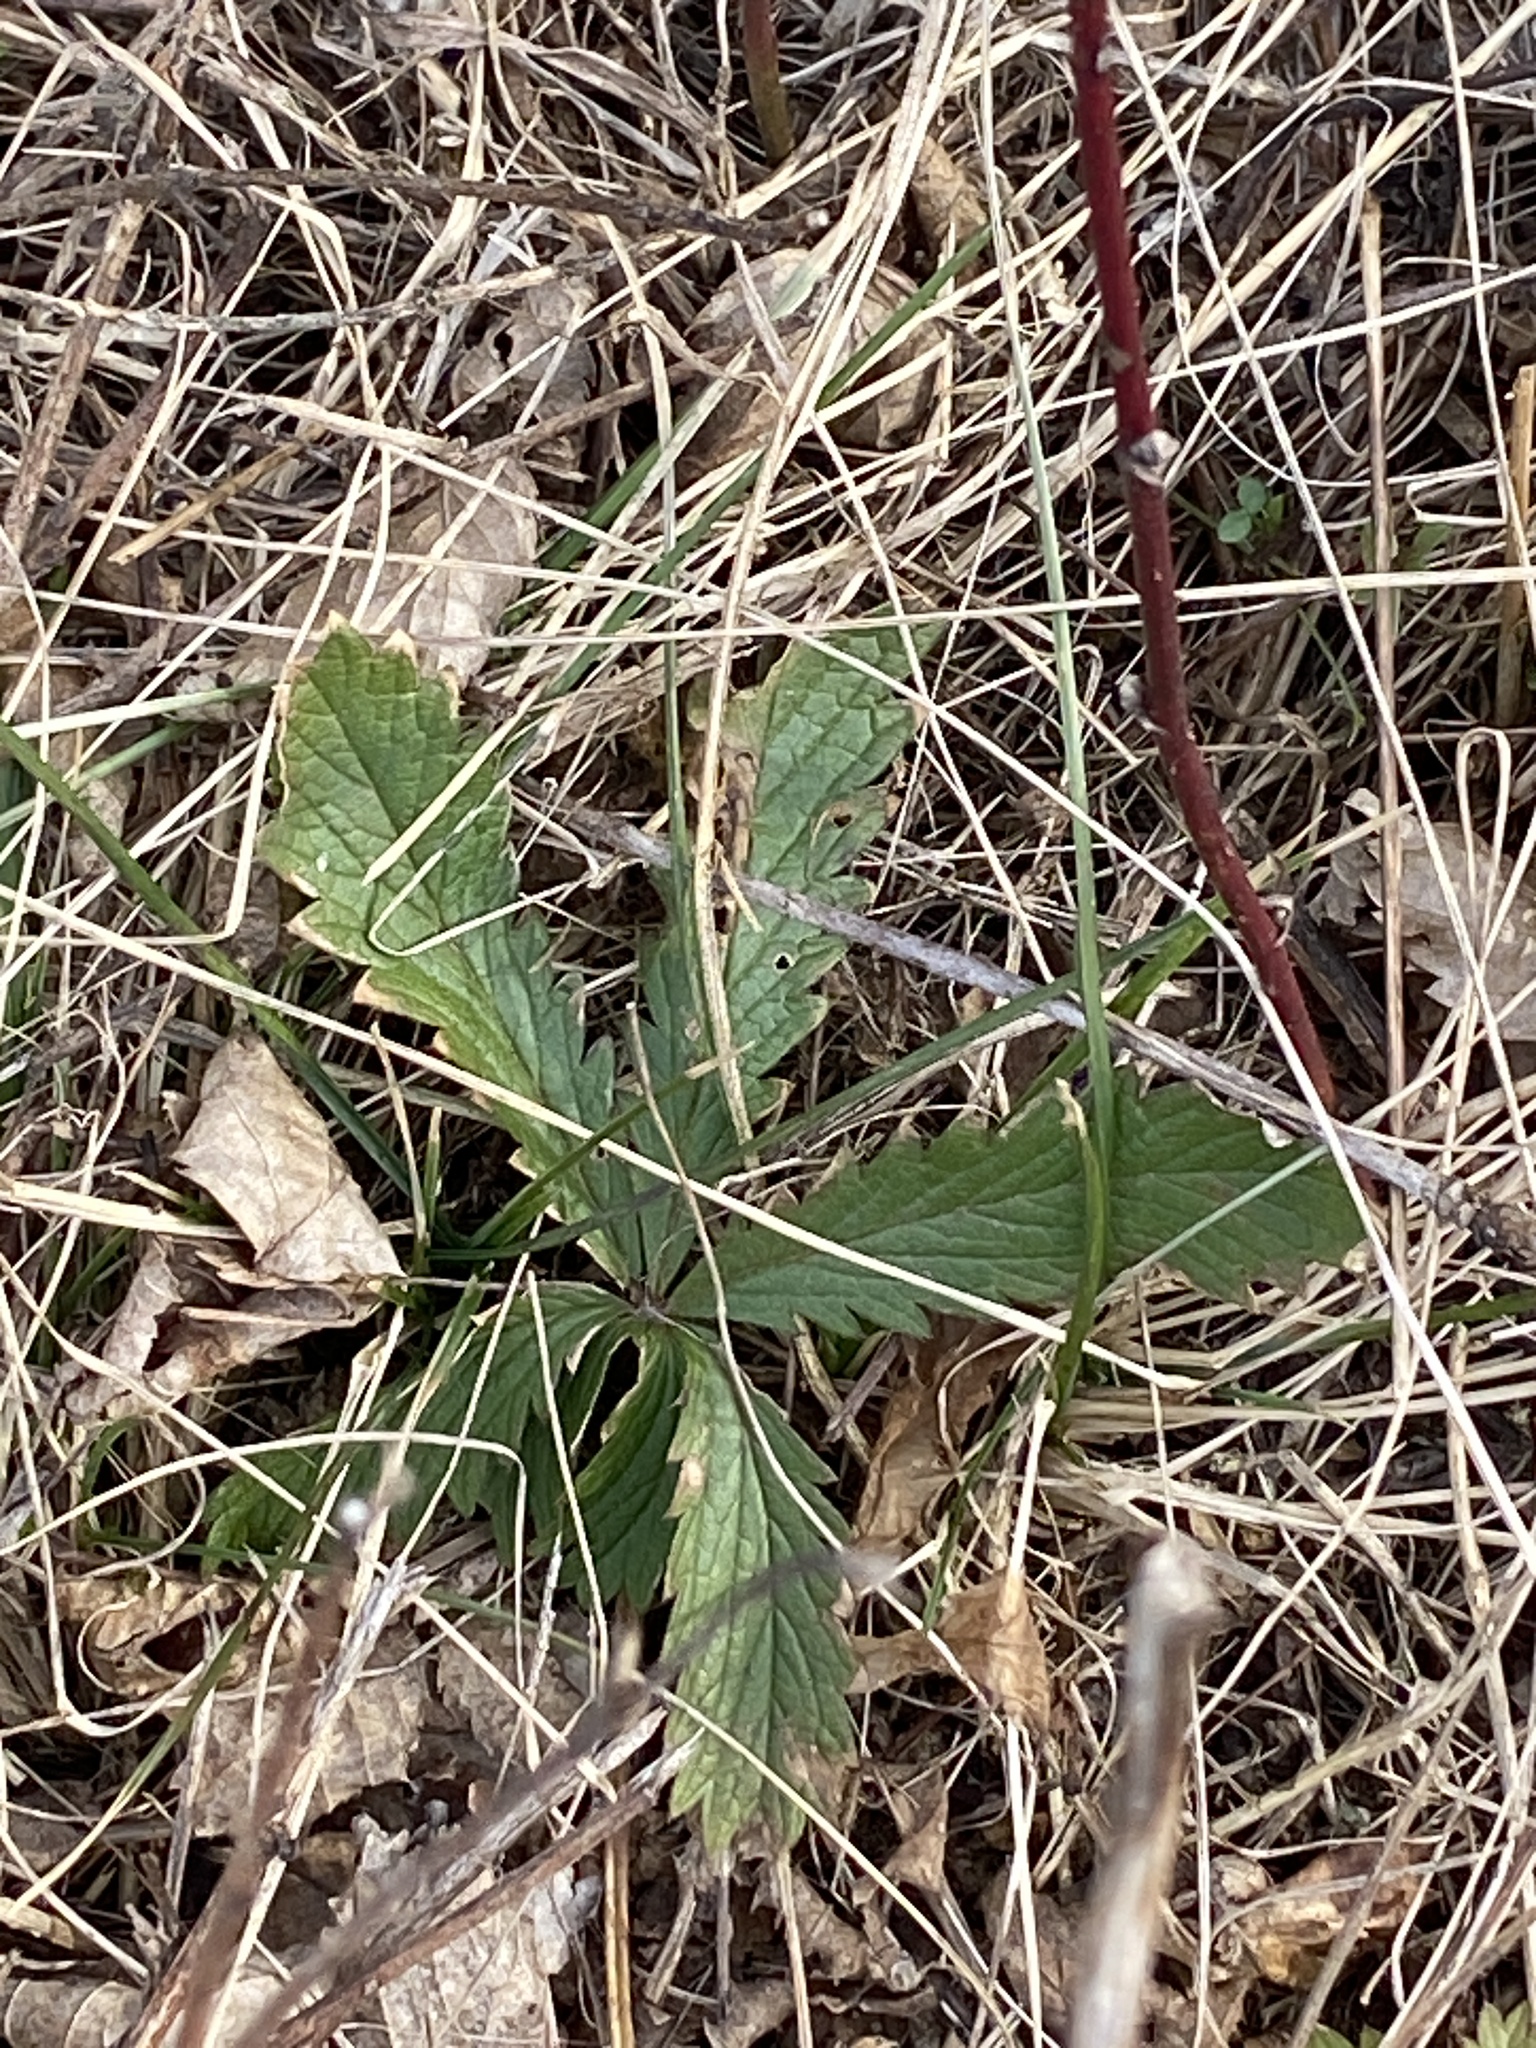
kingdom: Plantae
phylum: Tracheophyta
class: Magnoliopsida
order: Rosales
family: Rosaceae
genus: Potentilla
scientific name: Potentilla recta
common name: Sulphur cinquefoil
